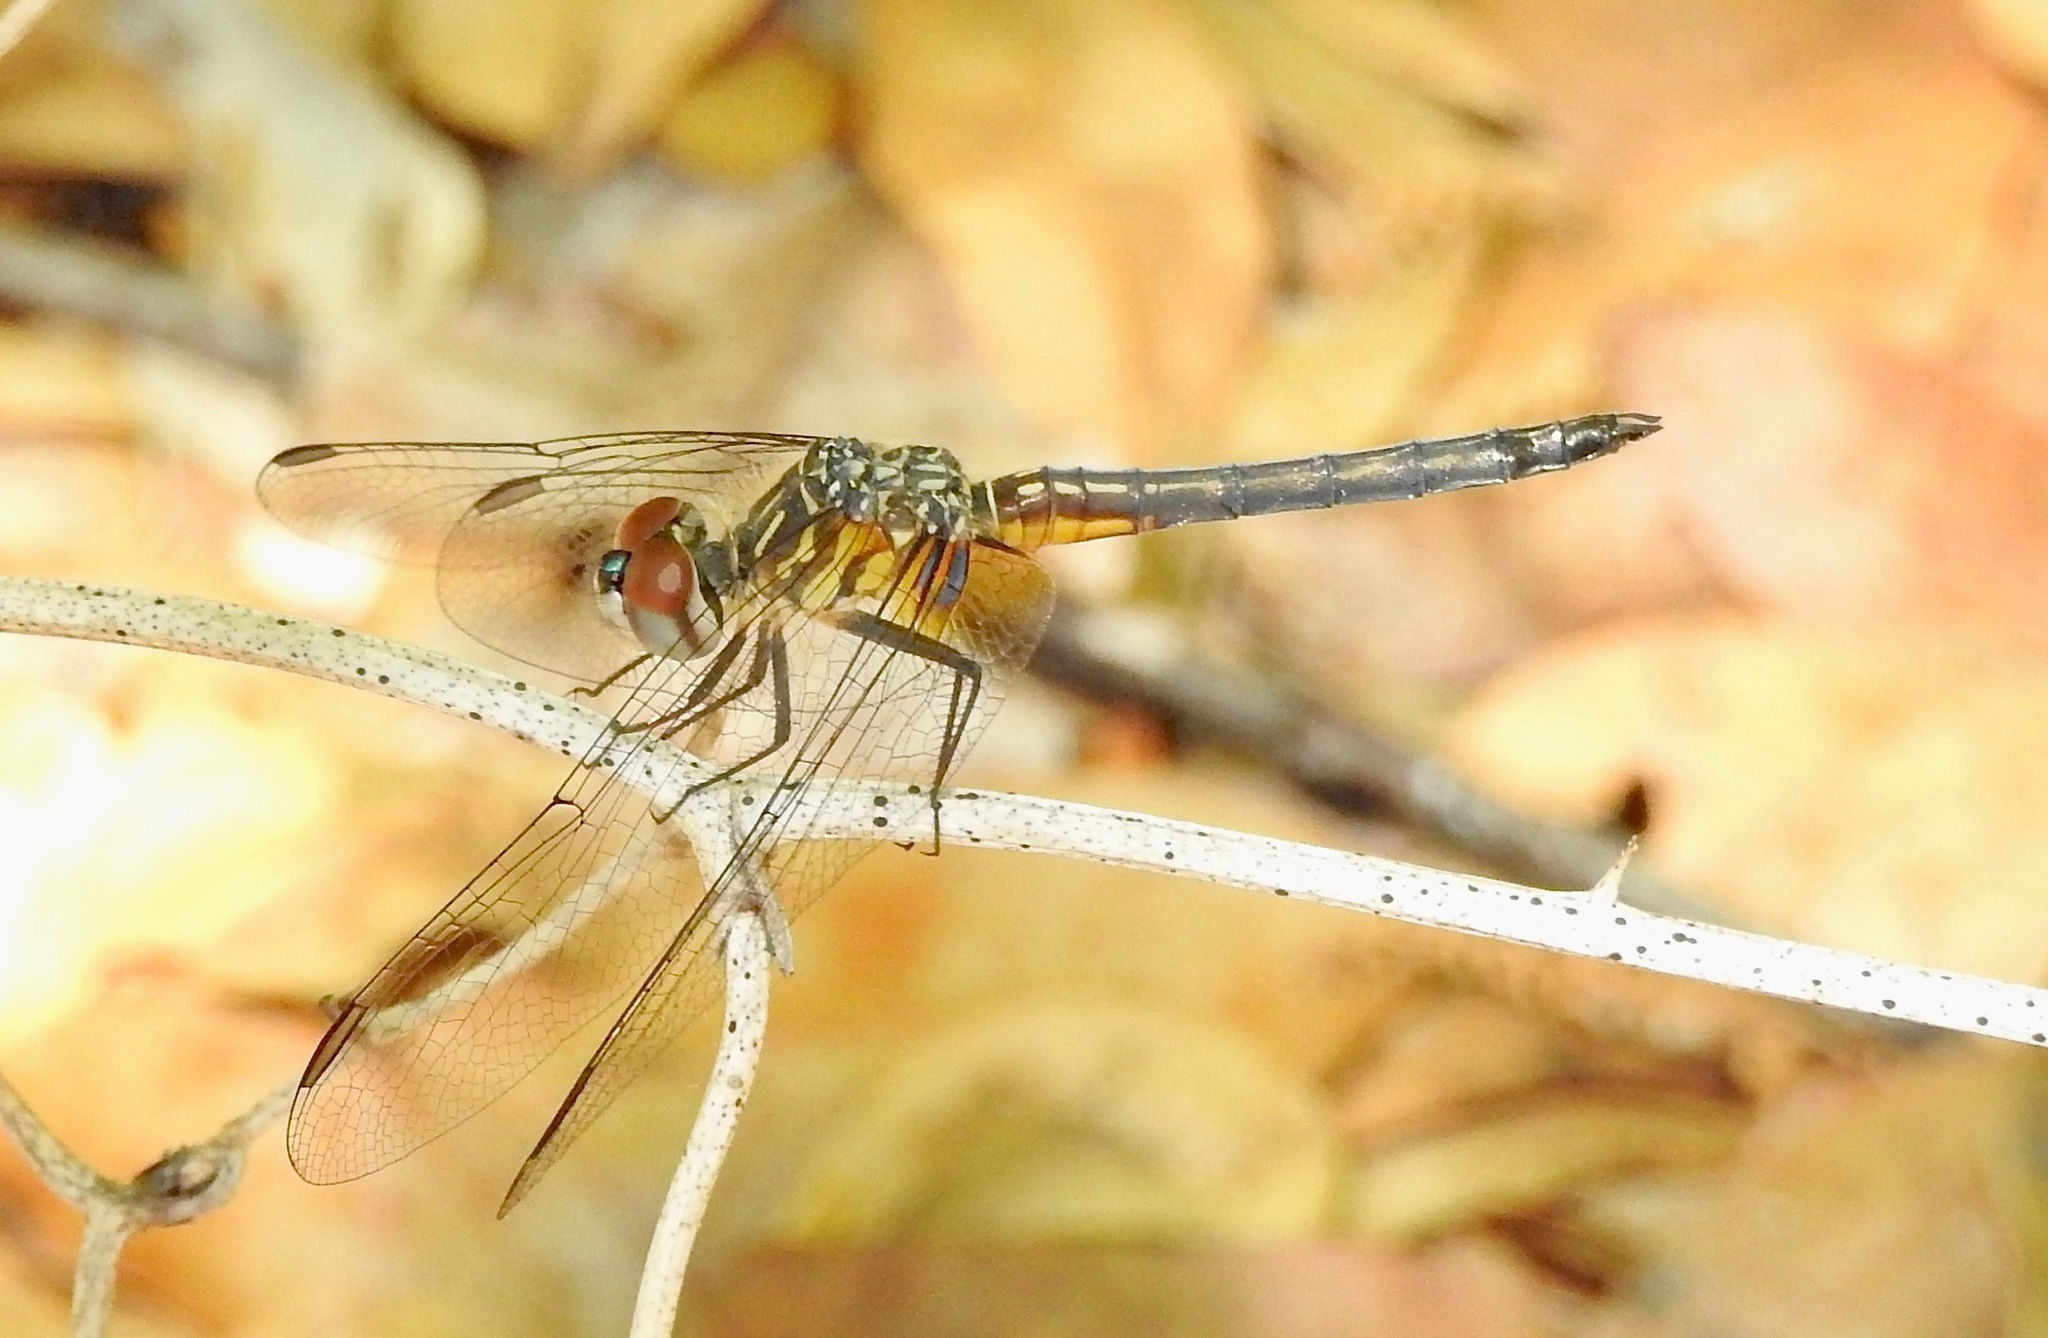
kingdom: Animalia
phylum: Arthropoda
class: Insecta
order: Odonata
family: Libellulidae
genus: Pachydiplax
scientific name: Pachydiplax longipennis
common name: Blue dasher
